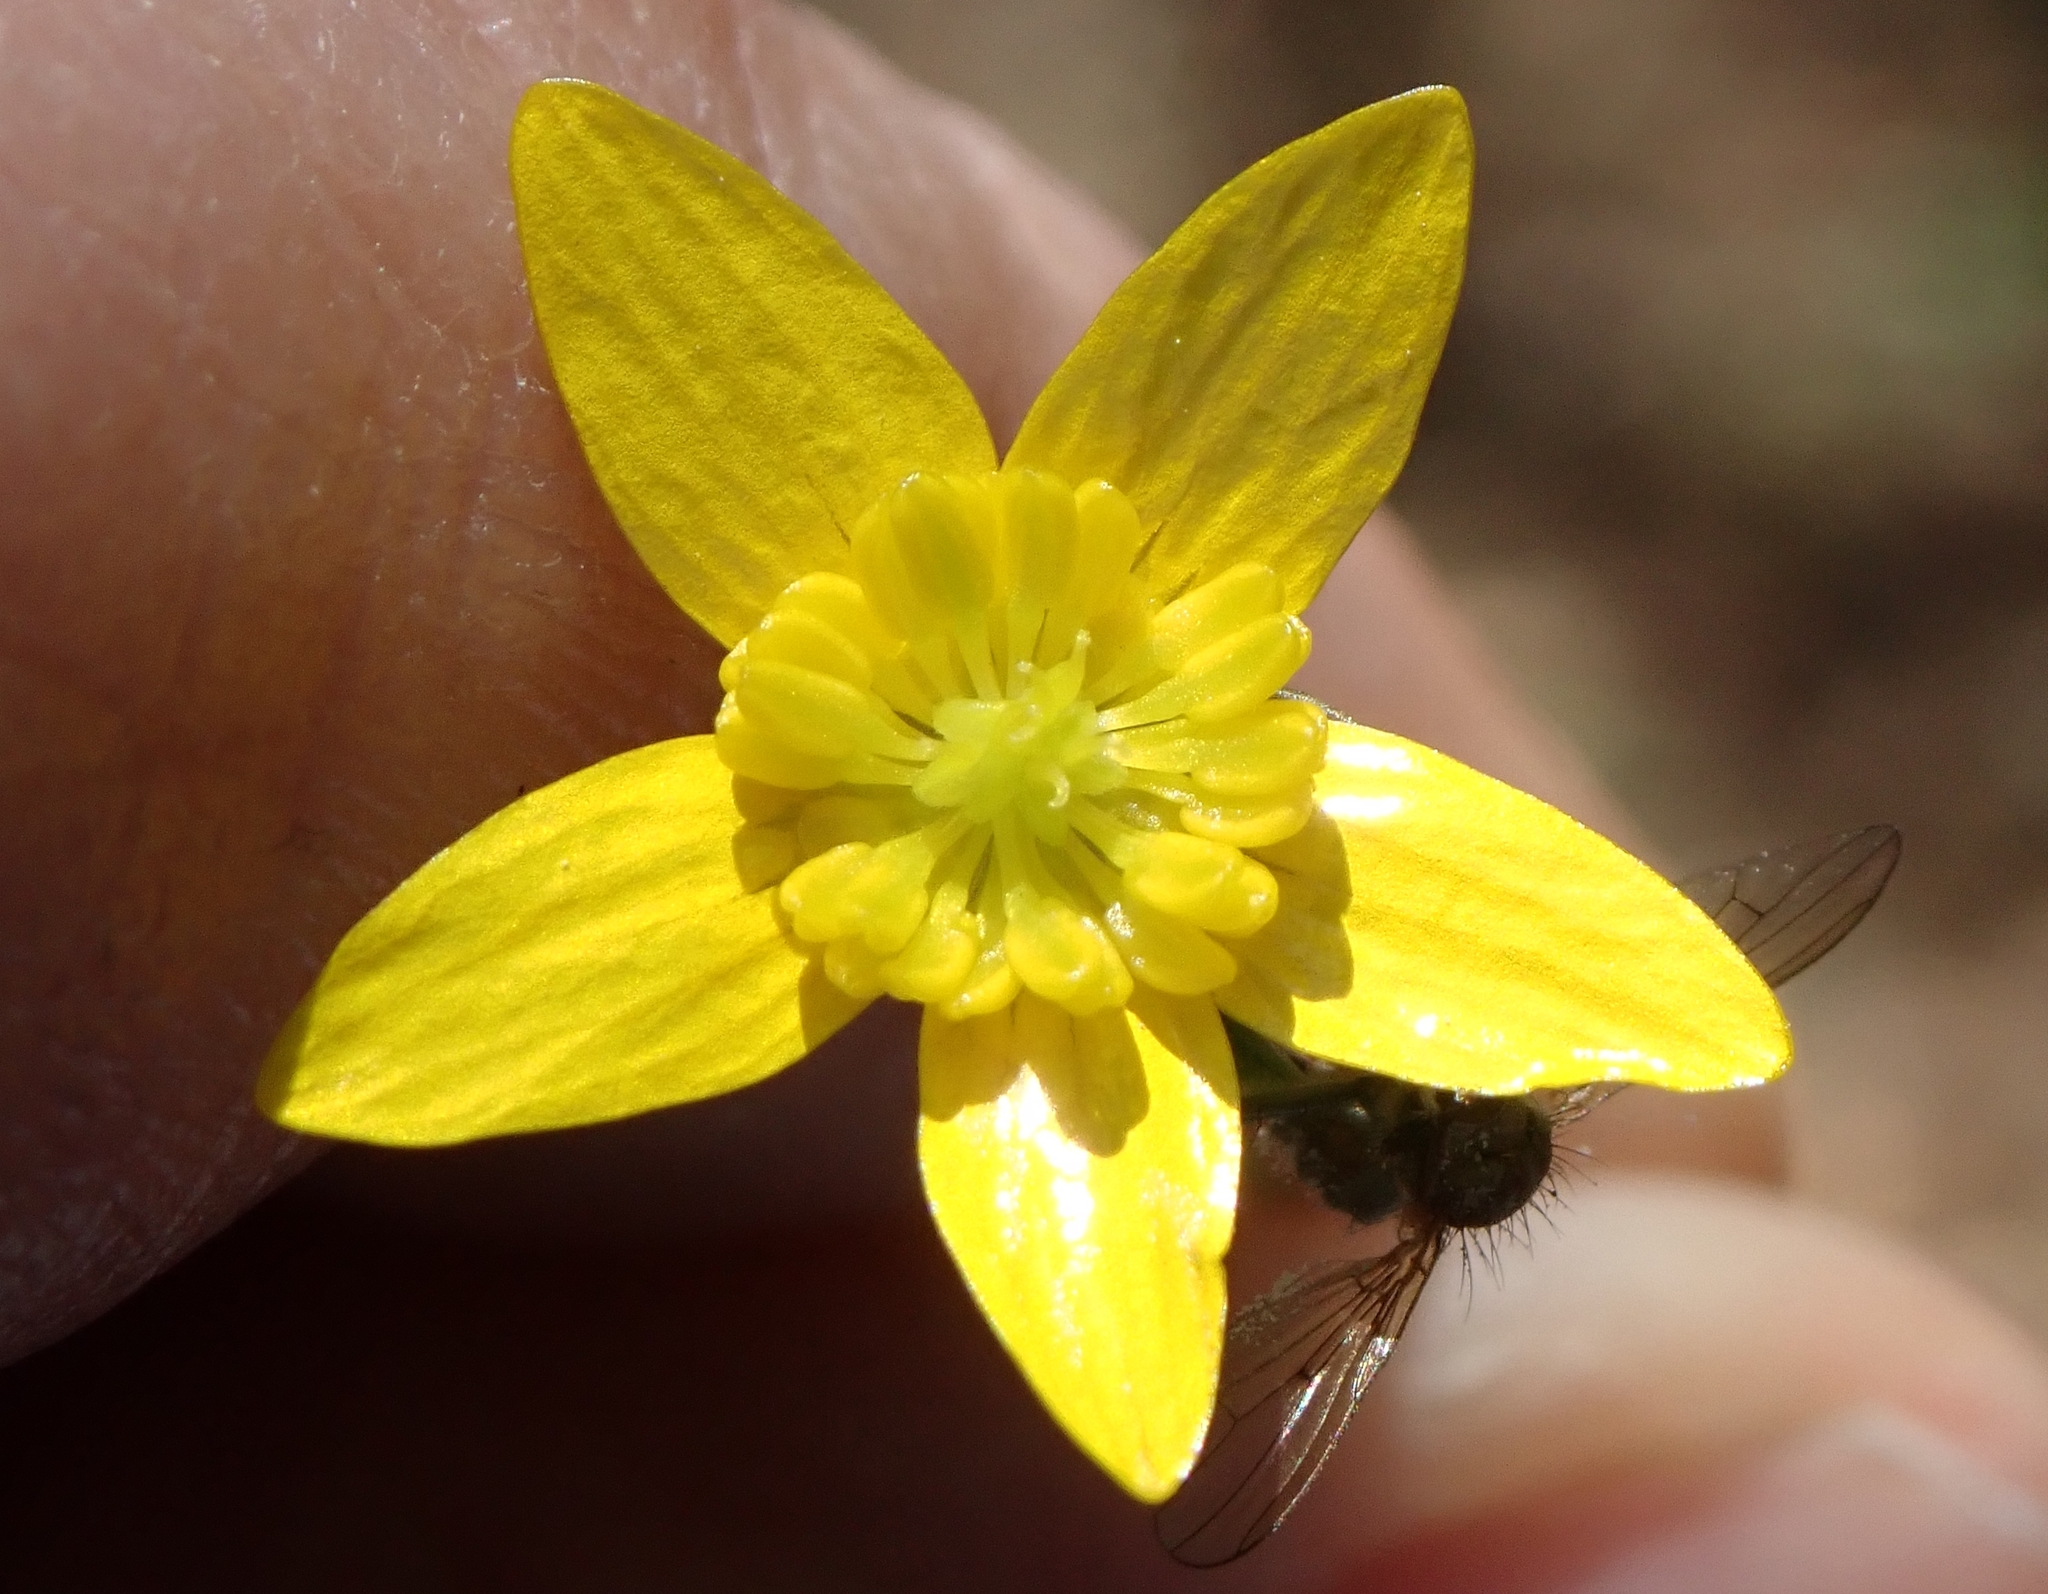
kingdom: Plantae
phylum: Tracheophyta
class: Magnoliopsida
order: Ranunculales
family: Ranunculaceae
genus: Ranunculus
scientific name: Ranunculus occidentalis
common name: Western buttercup
